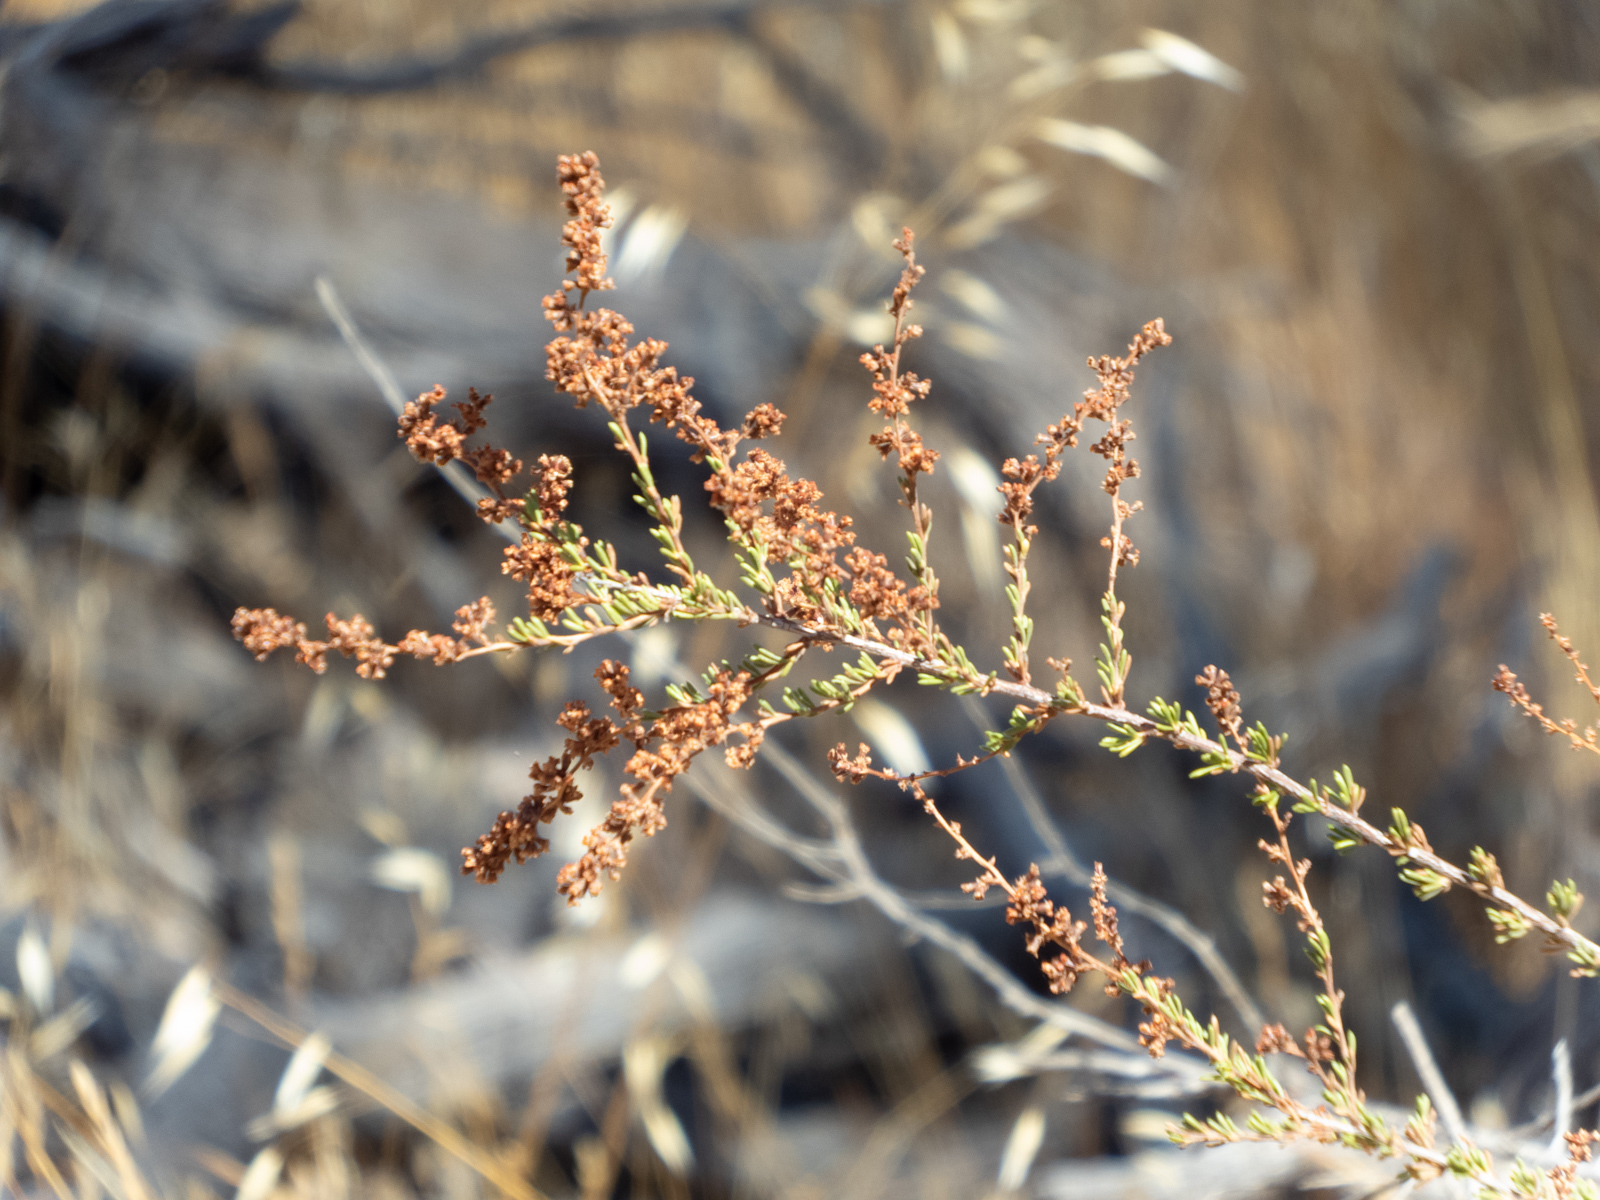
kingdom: Plantae
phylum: Tracheophyta
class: Magnoliopsida
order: Rosales
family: Rosaceae
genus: Adenostoma
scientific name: Adenostoma fasciculatum
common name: Chamise
